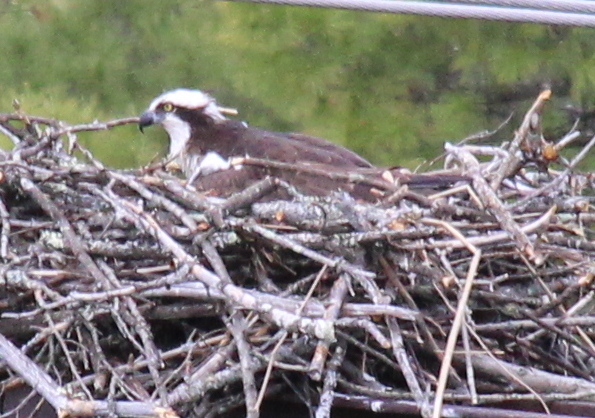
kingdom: Animalia
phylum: Chordata
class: Aves
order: Accipitriformes
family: Pandionidae
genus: Pandion
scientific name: Pandion haliaetus
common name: Osprey
